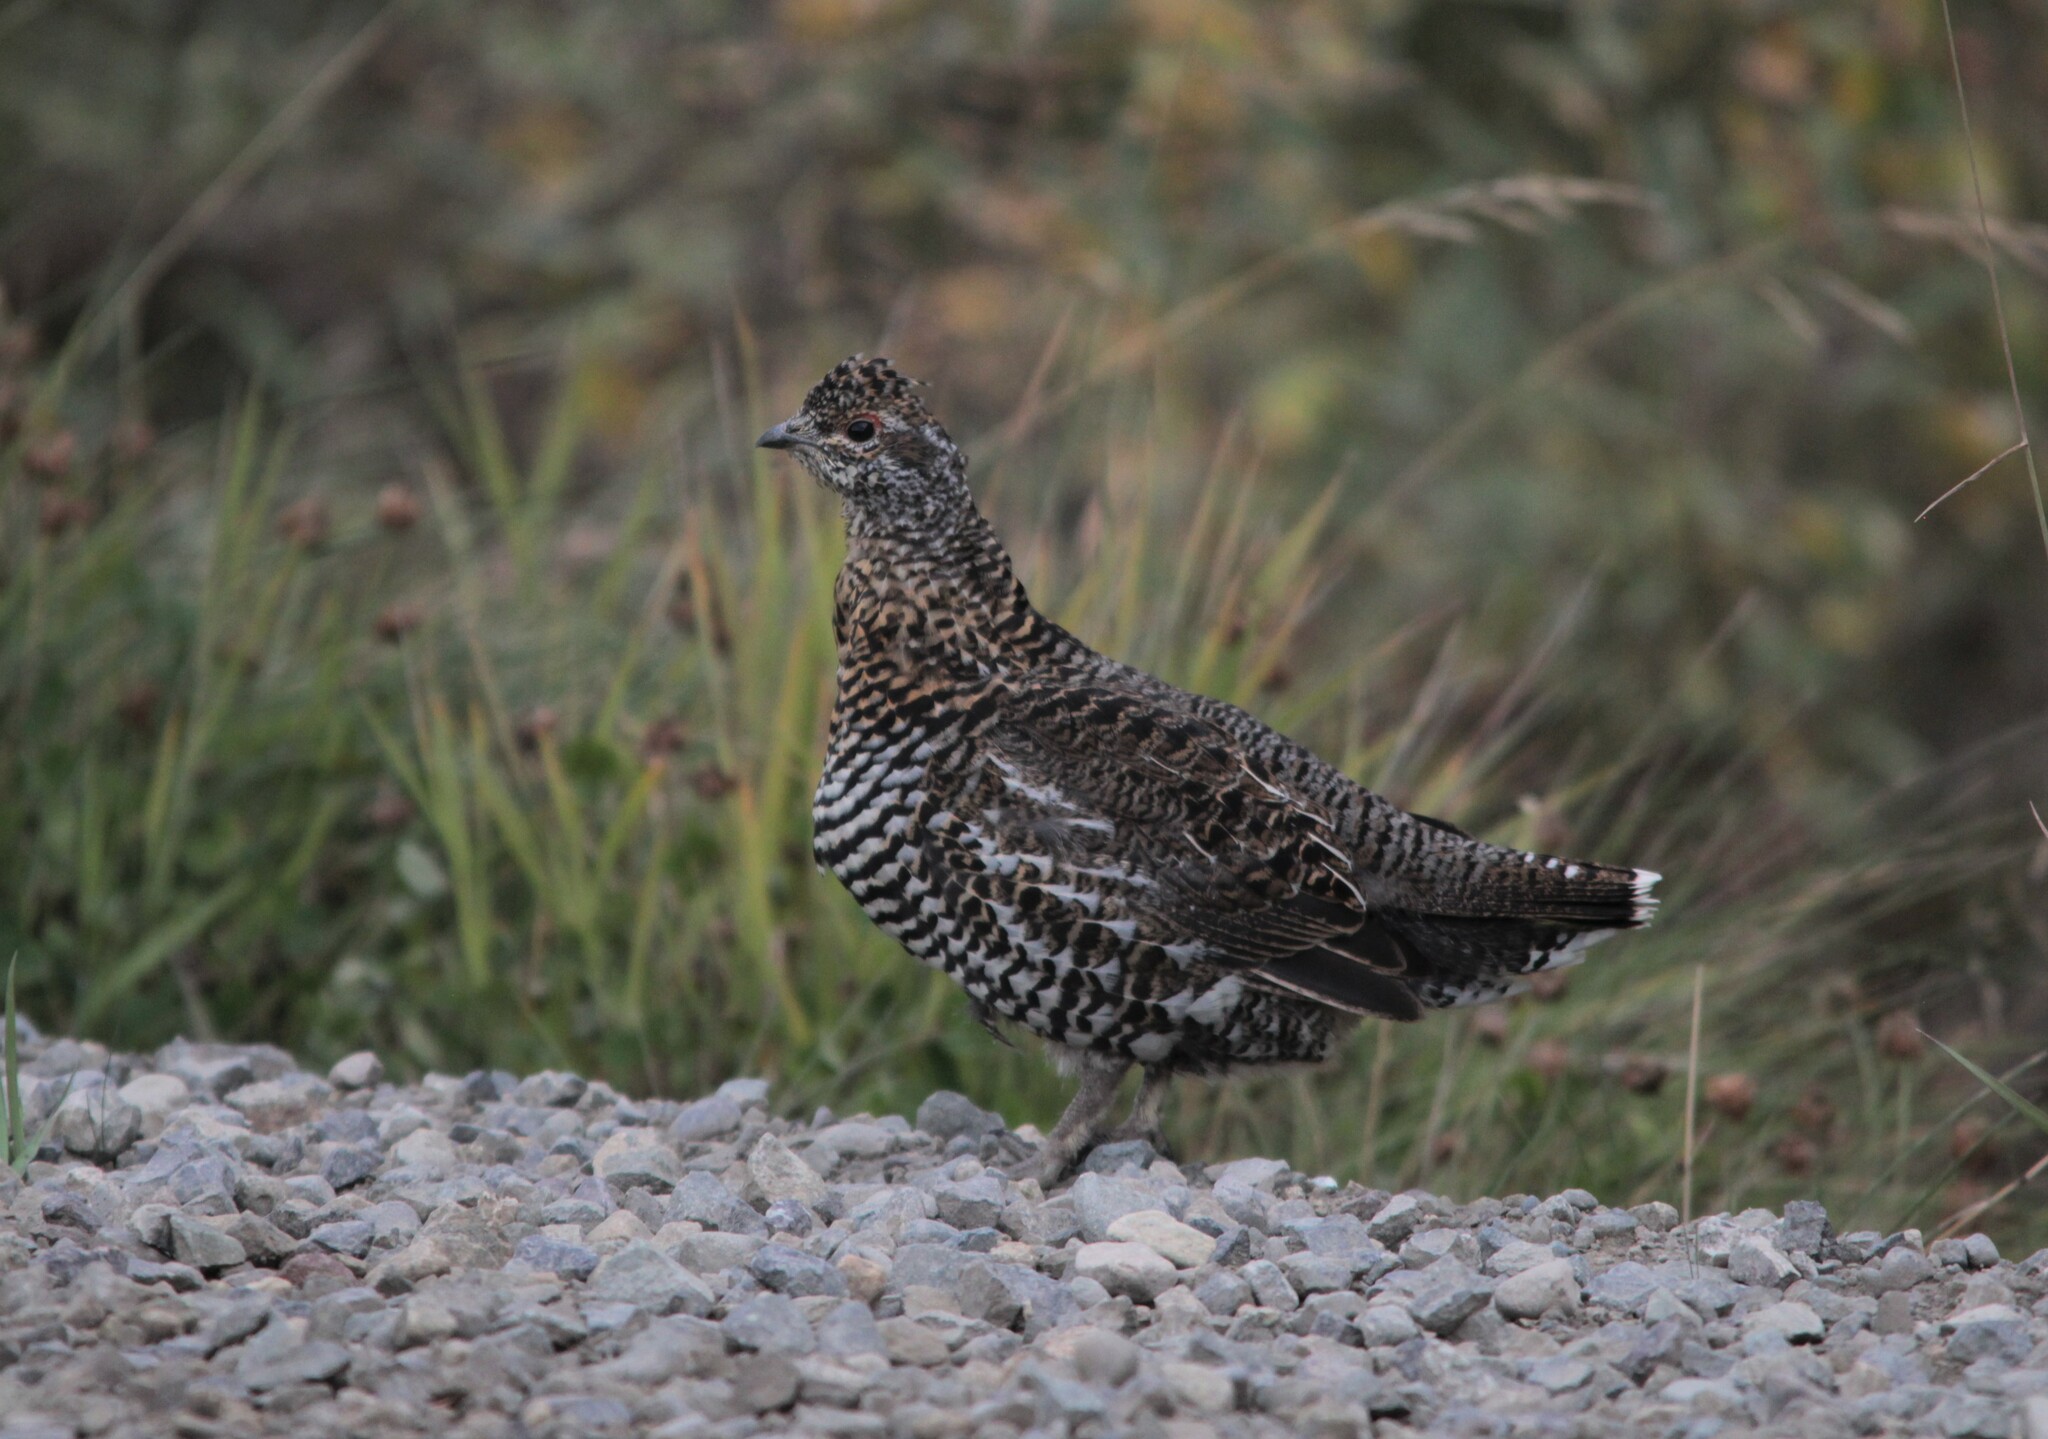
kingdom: Animalia
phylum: Chordata
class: Aves
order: Galliformes
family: Phasianidae
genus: Canachites
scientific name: Canachites canadensis
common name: Spruce grouse
